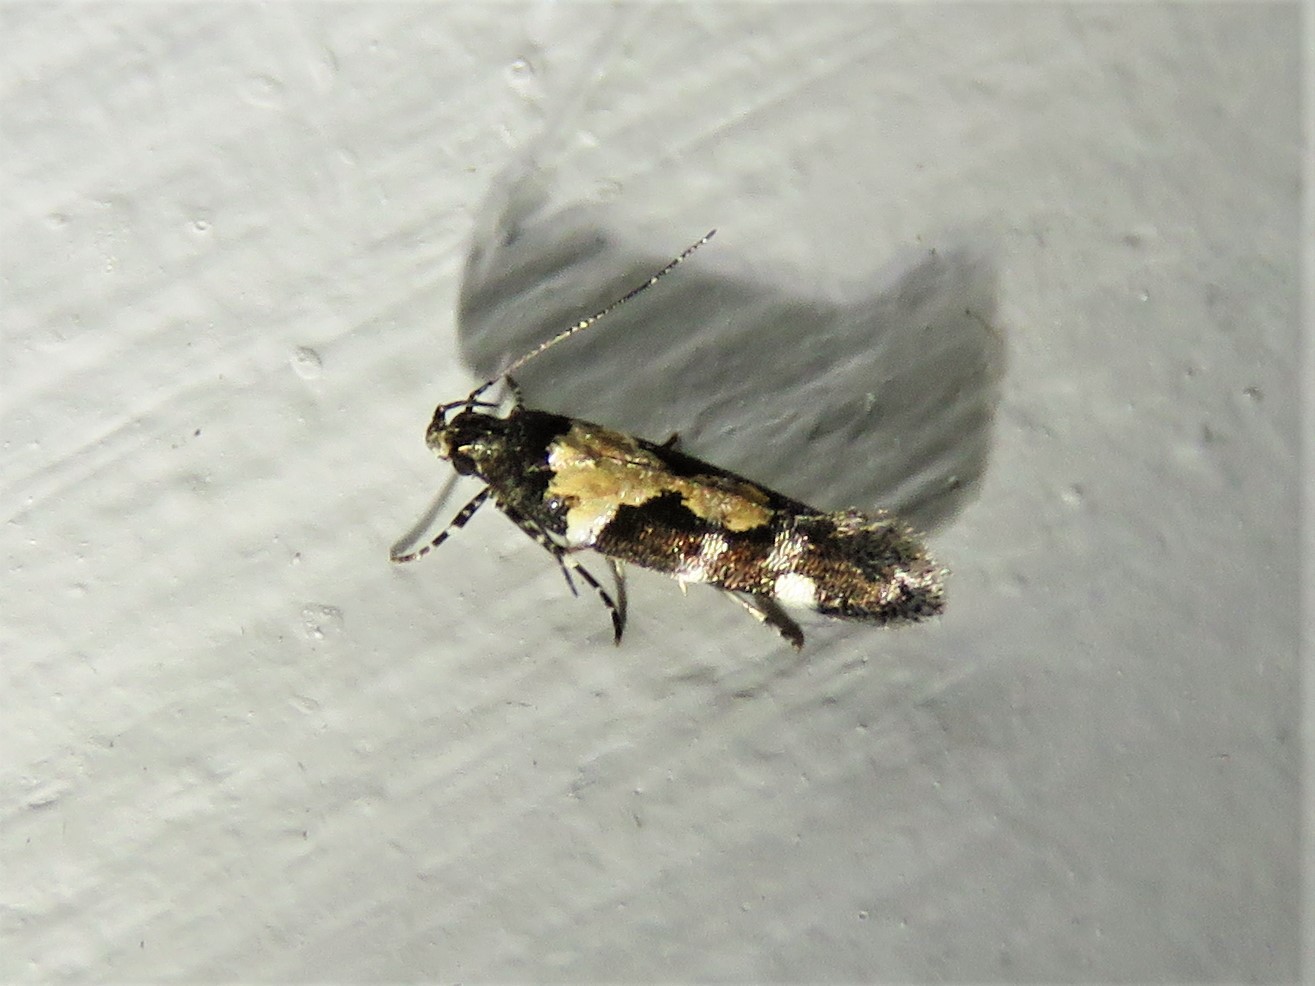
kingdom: Animalia
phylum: Arthropoda
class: Insecta
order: Lepidoptera
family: Gelechiidae
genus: Stegasta
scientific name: Stegasta bosqueella
